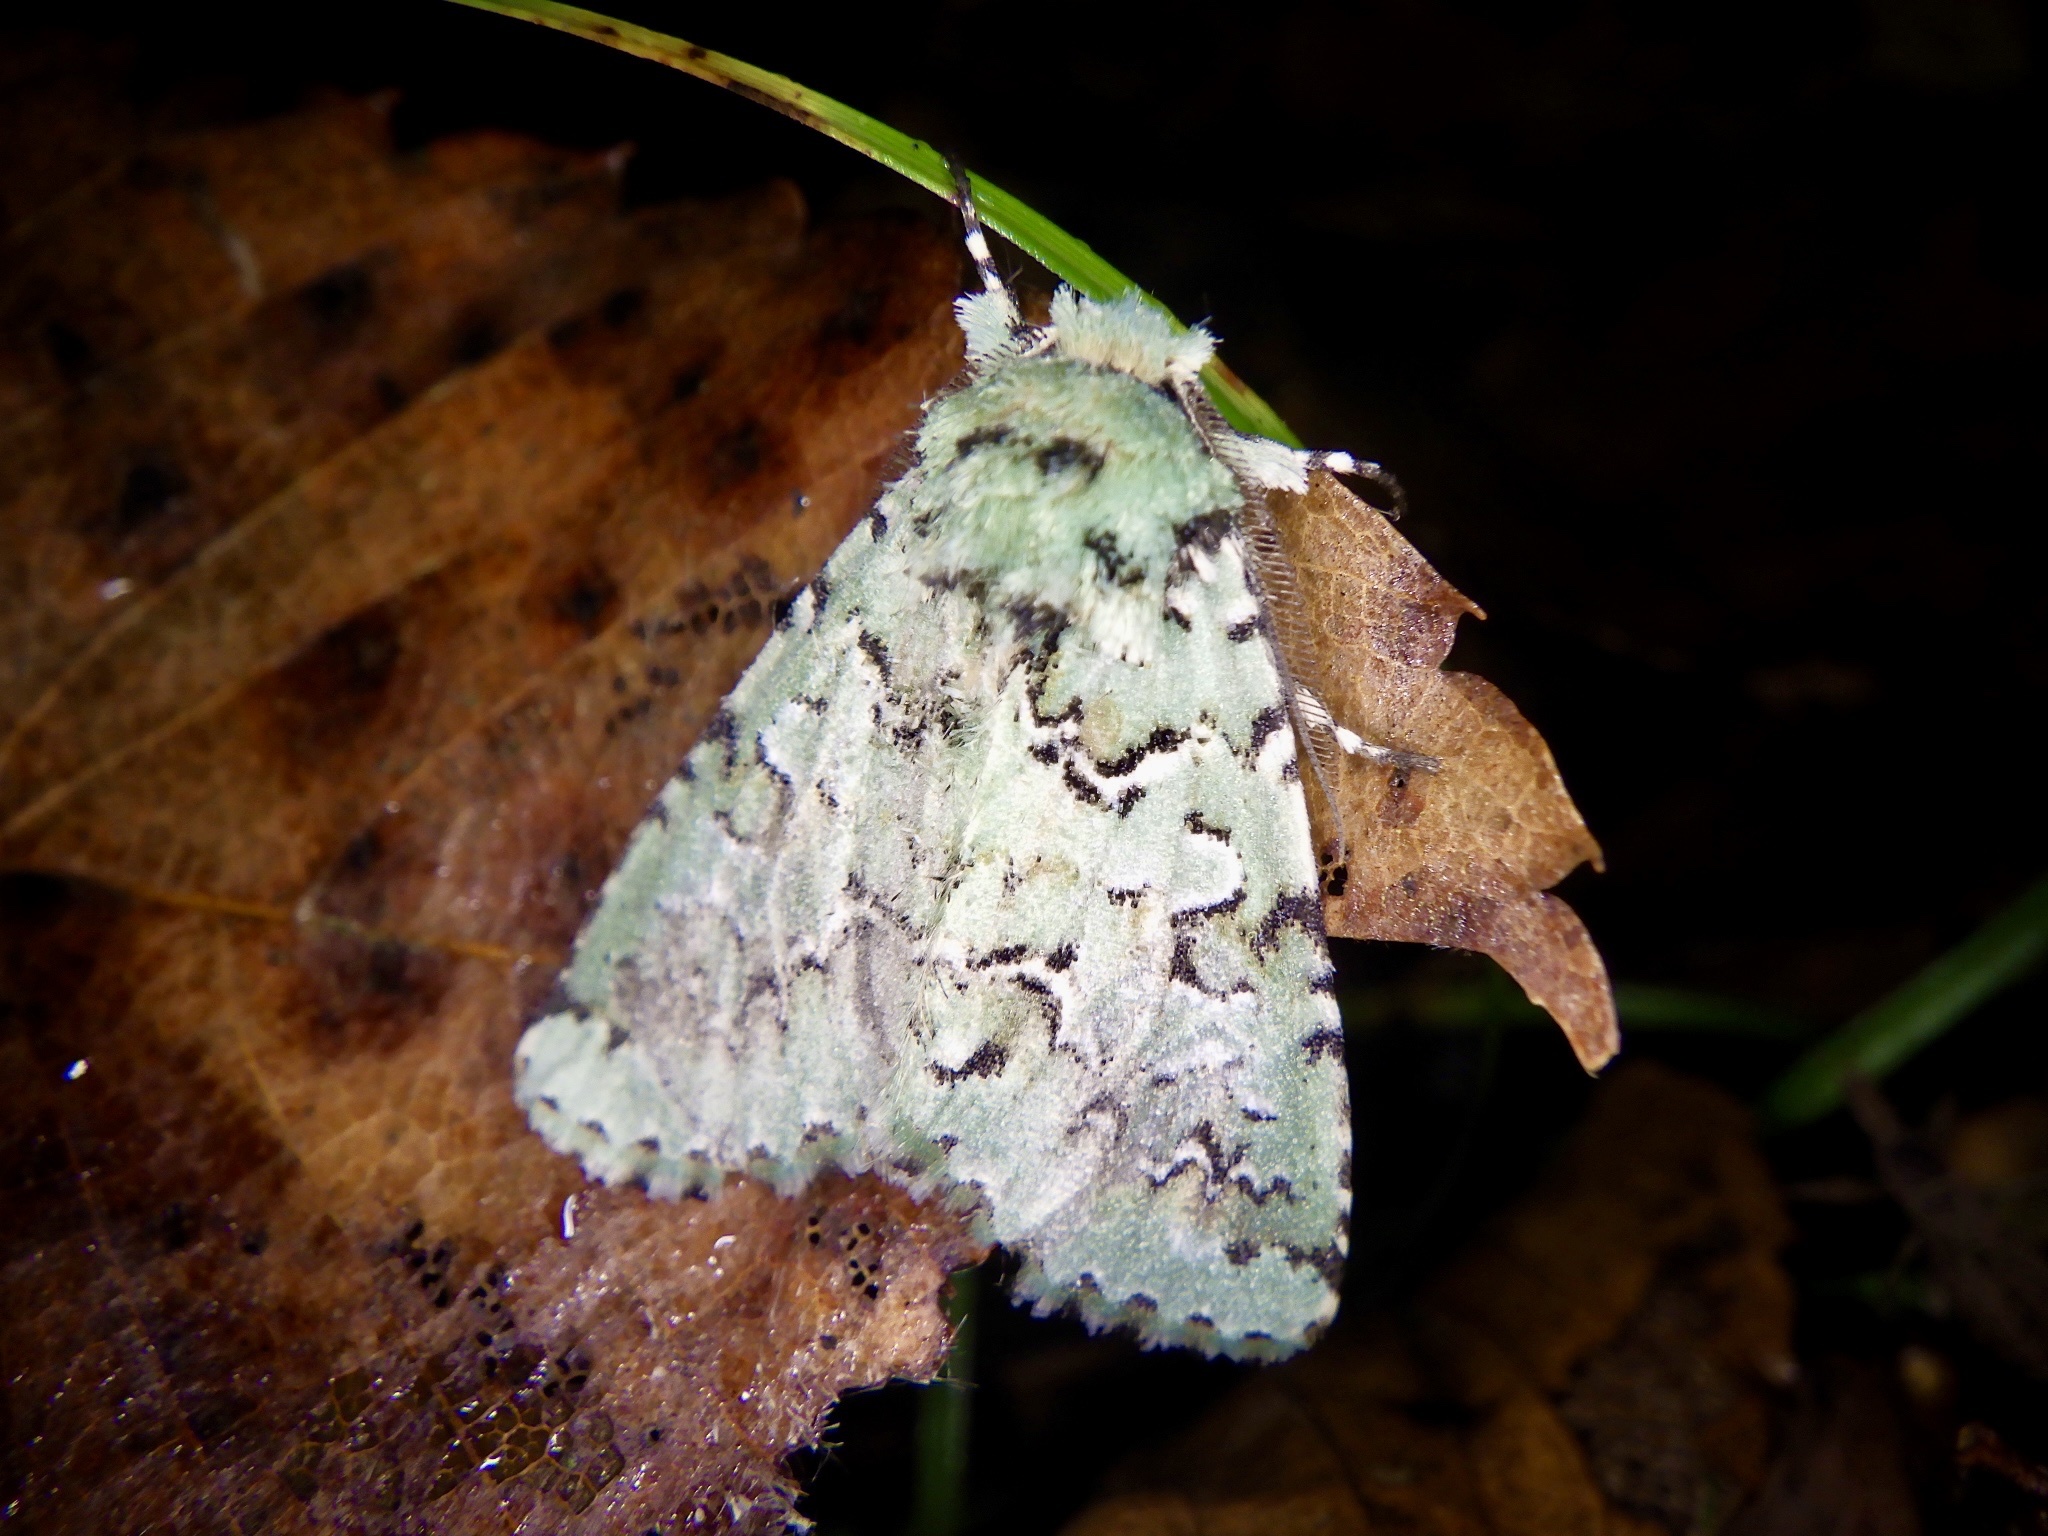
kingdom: Animalia
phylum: Arthropoda
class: Insecta
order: Lepidoptera
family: Noctuidae
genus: Daseochaeta
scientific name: Daseochaeta viridis
